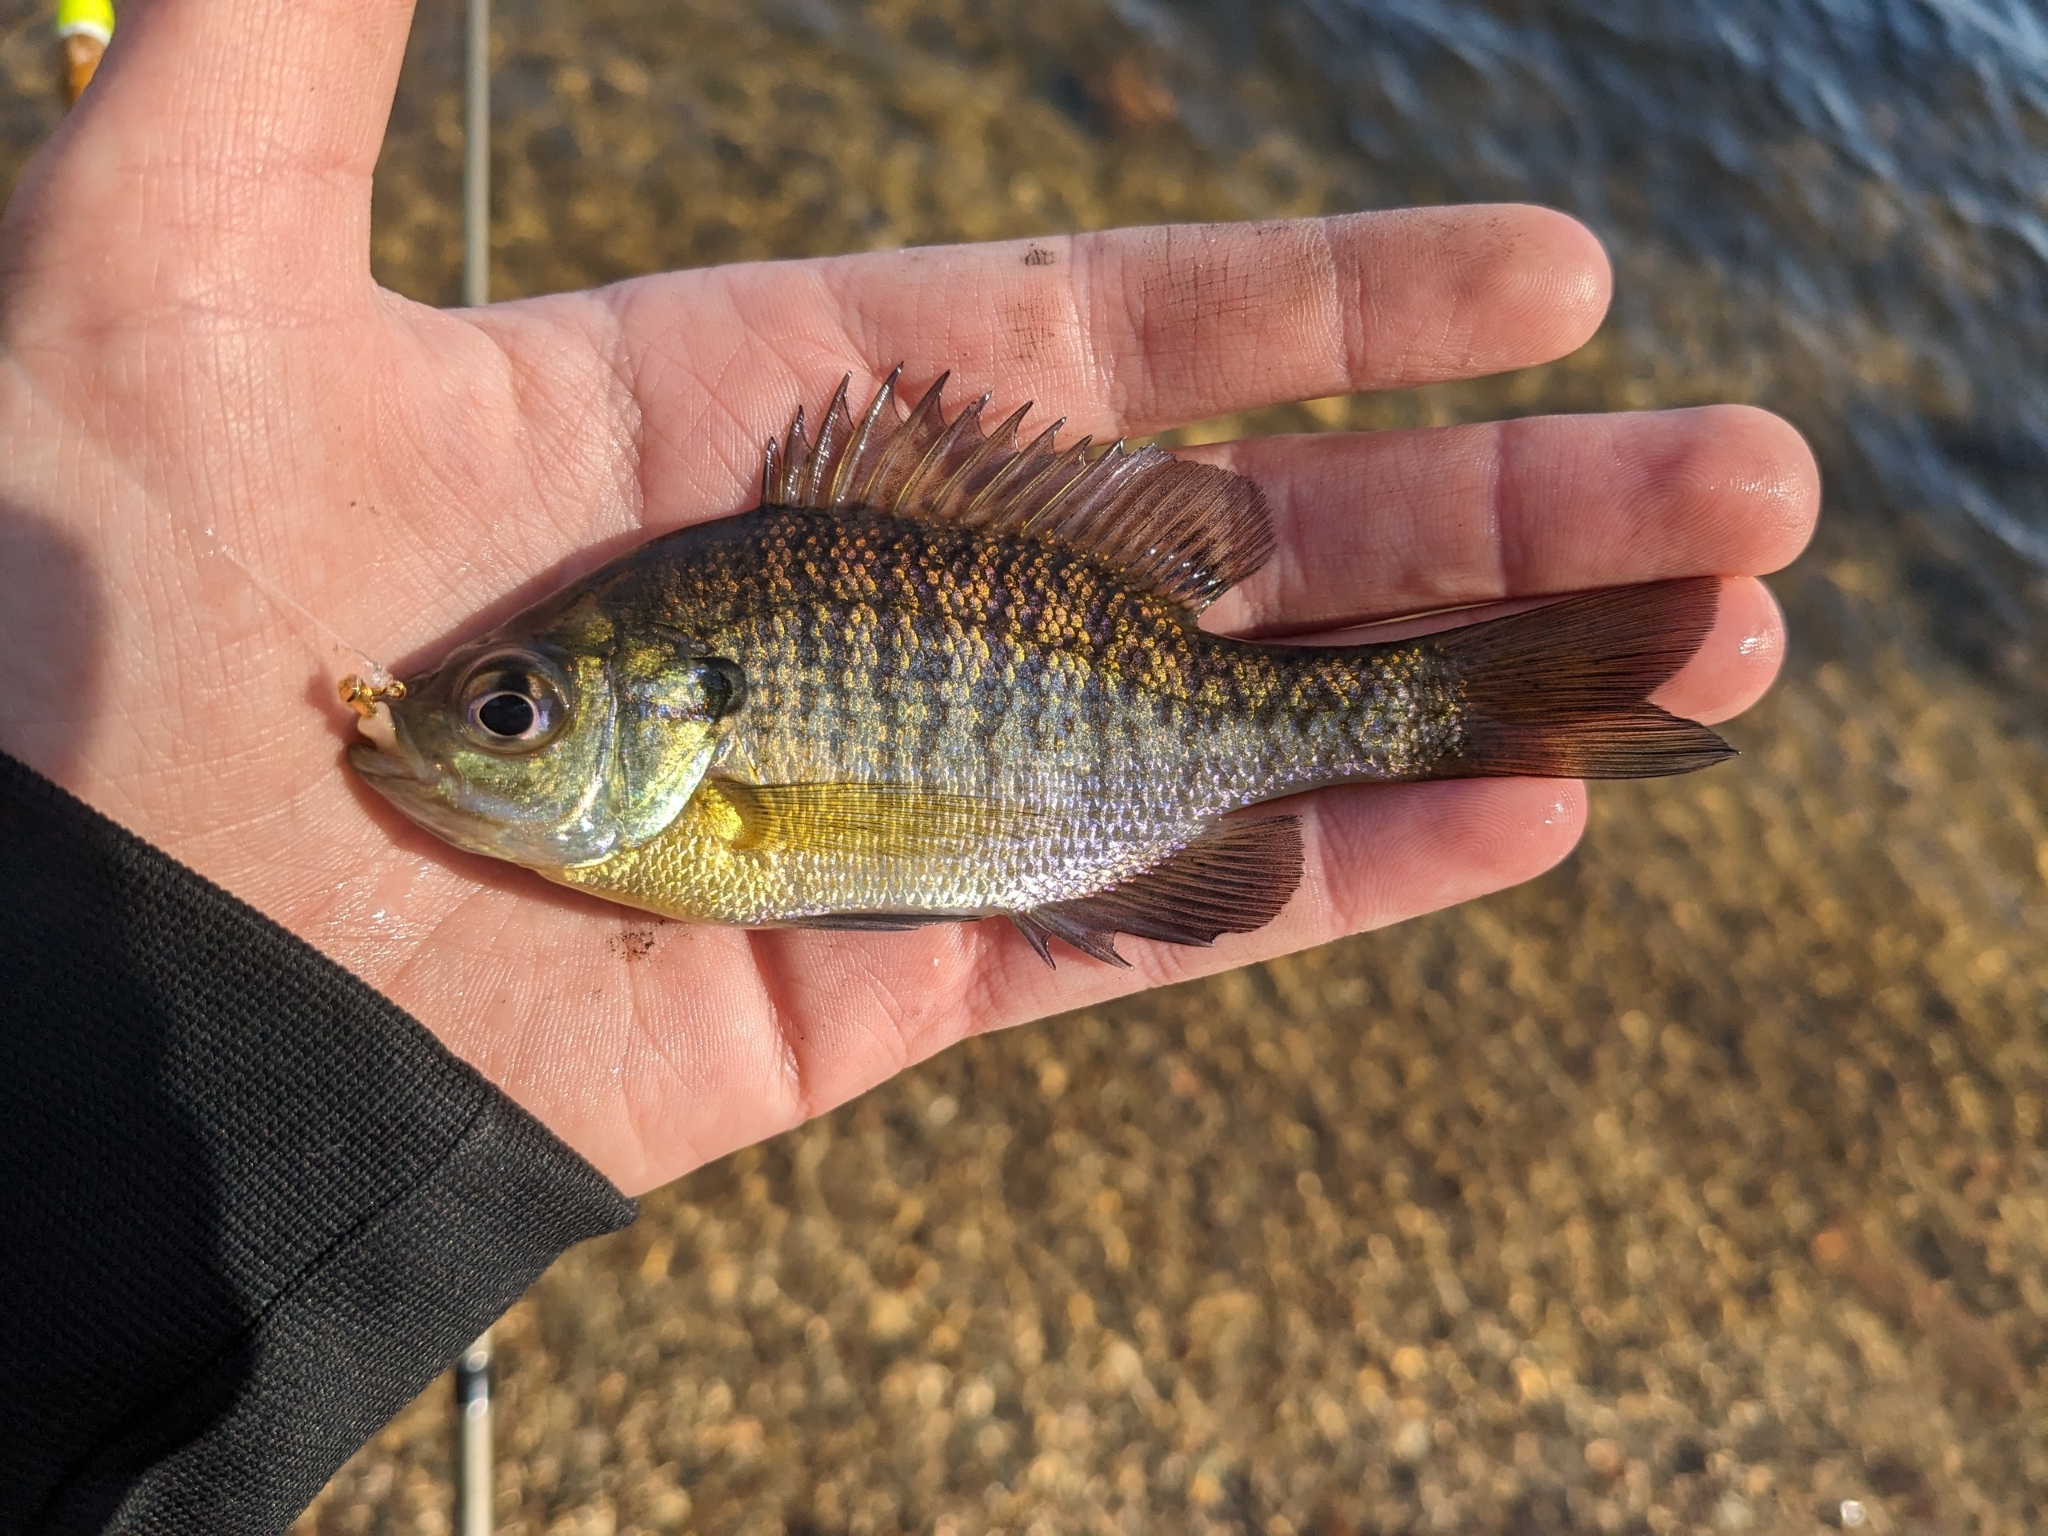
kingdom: Animalia
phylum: Chordata
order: Perciformes
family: Centrarchidae
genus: Lepomis
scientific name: Lepomis macrochirus
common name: Bluegill
